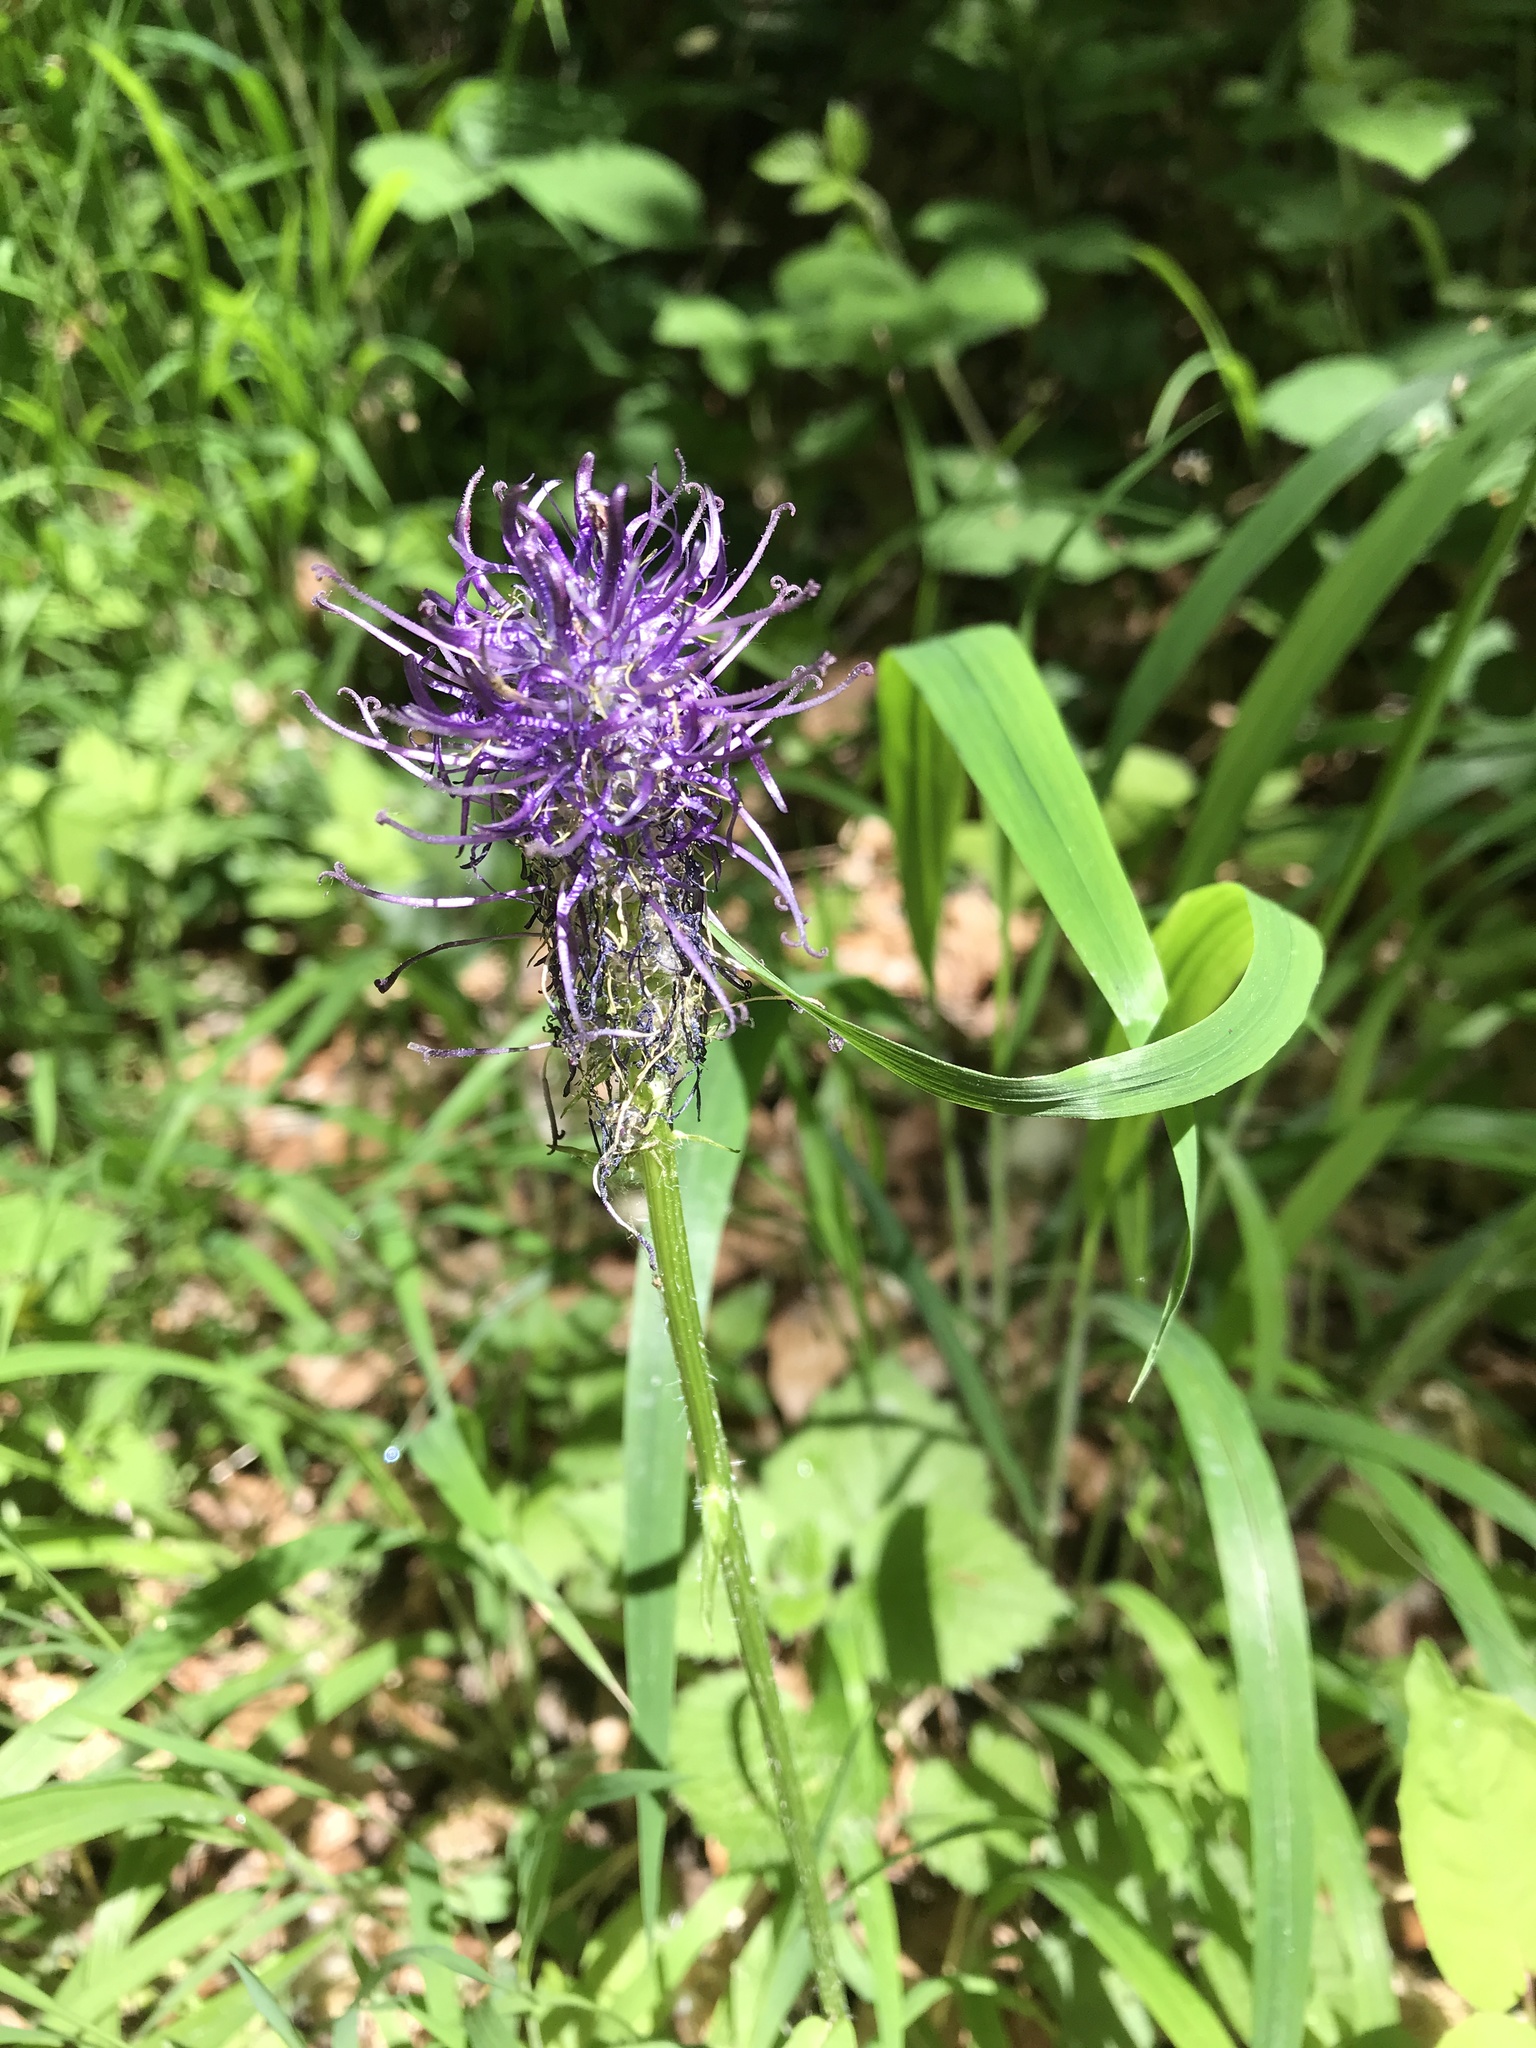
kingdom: Plantae
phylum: Tracheophyta
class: Magnoliopsida
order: Asterales
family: Campanulaceae
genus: Phyteuma
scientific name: Phyteuma nigrum
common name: Black rampion
